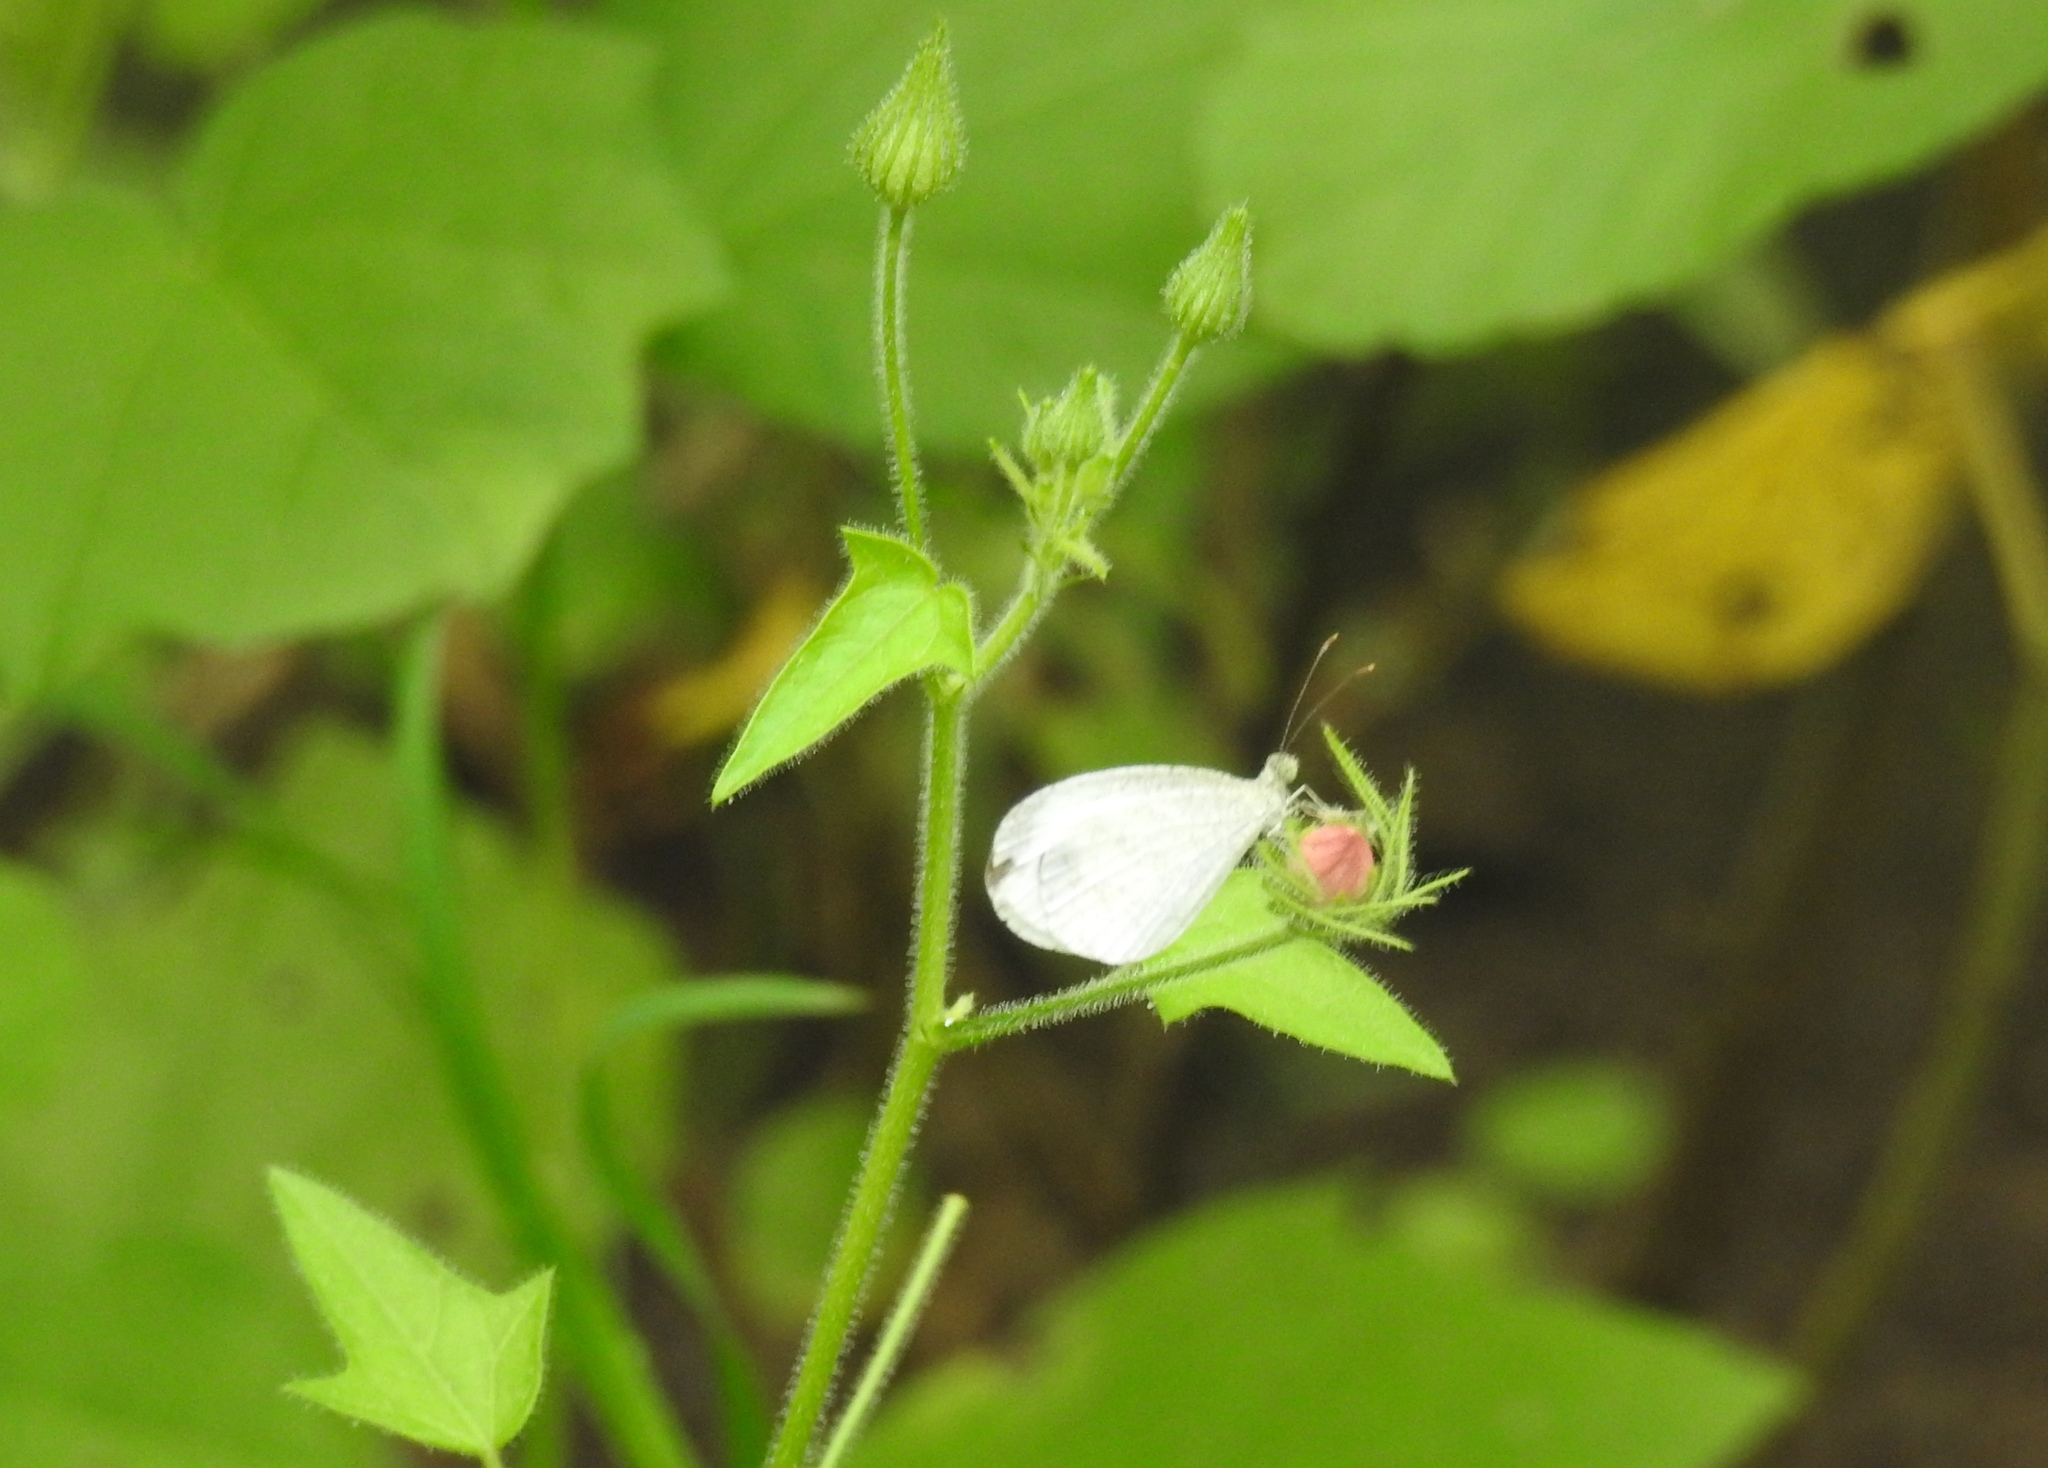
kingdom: Animalia
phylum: Arthropoda
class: Insecta
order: Lepidoptera
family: Pieridae
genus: Leptosia
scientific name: Leptosia nina
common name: Psyche
